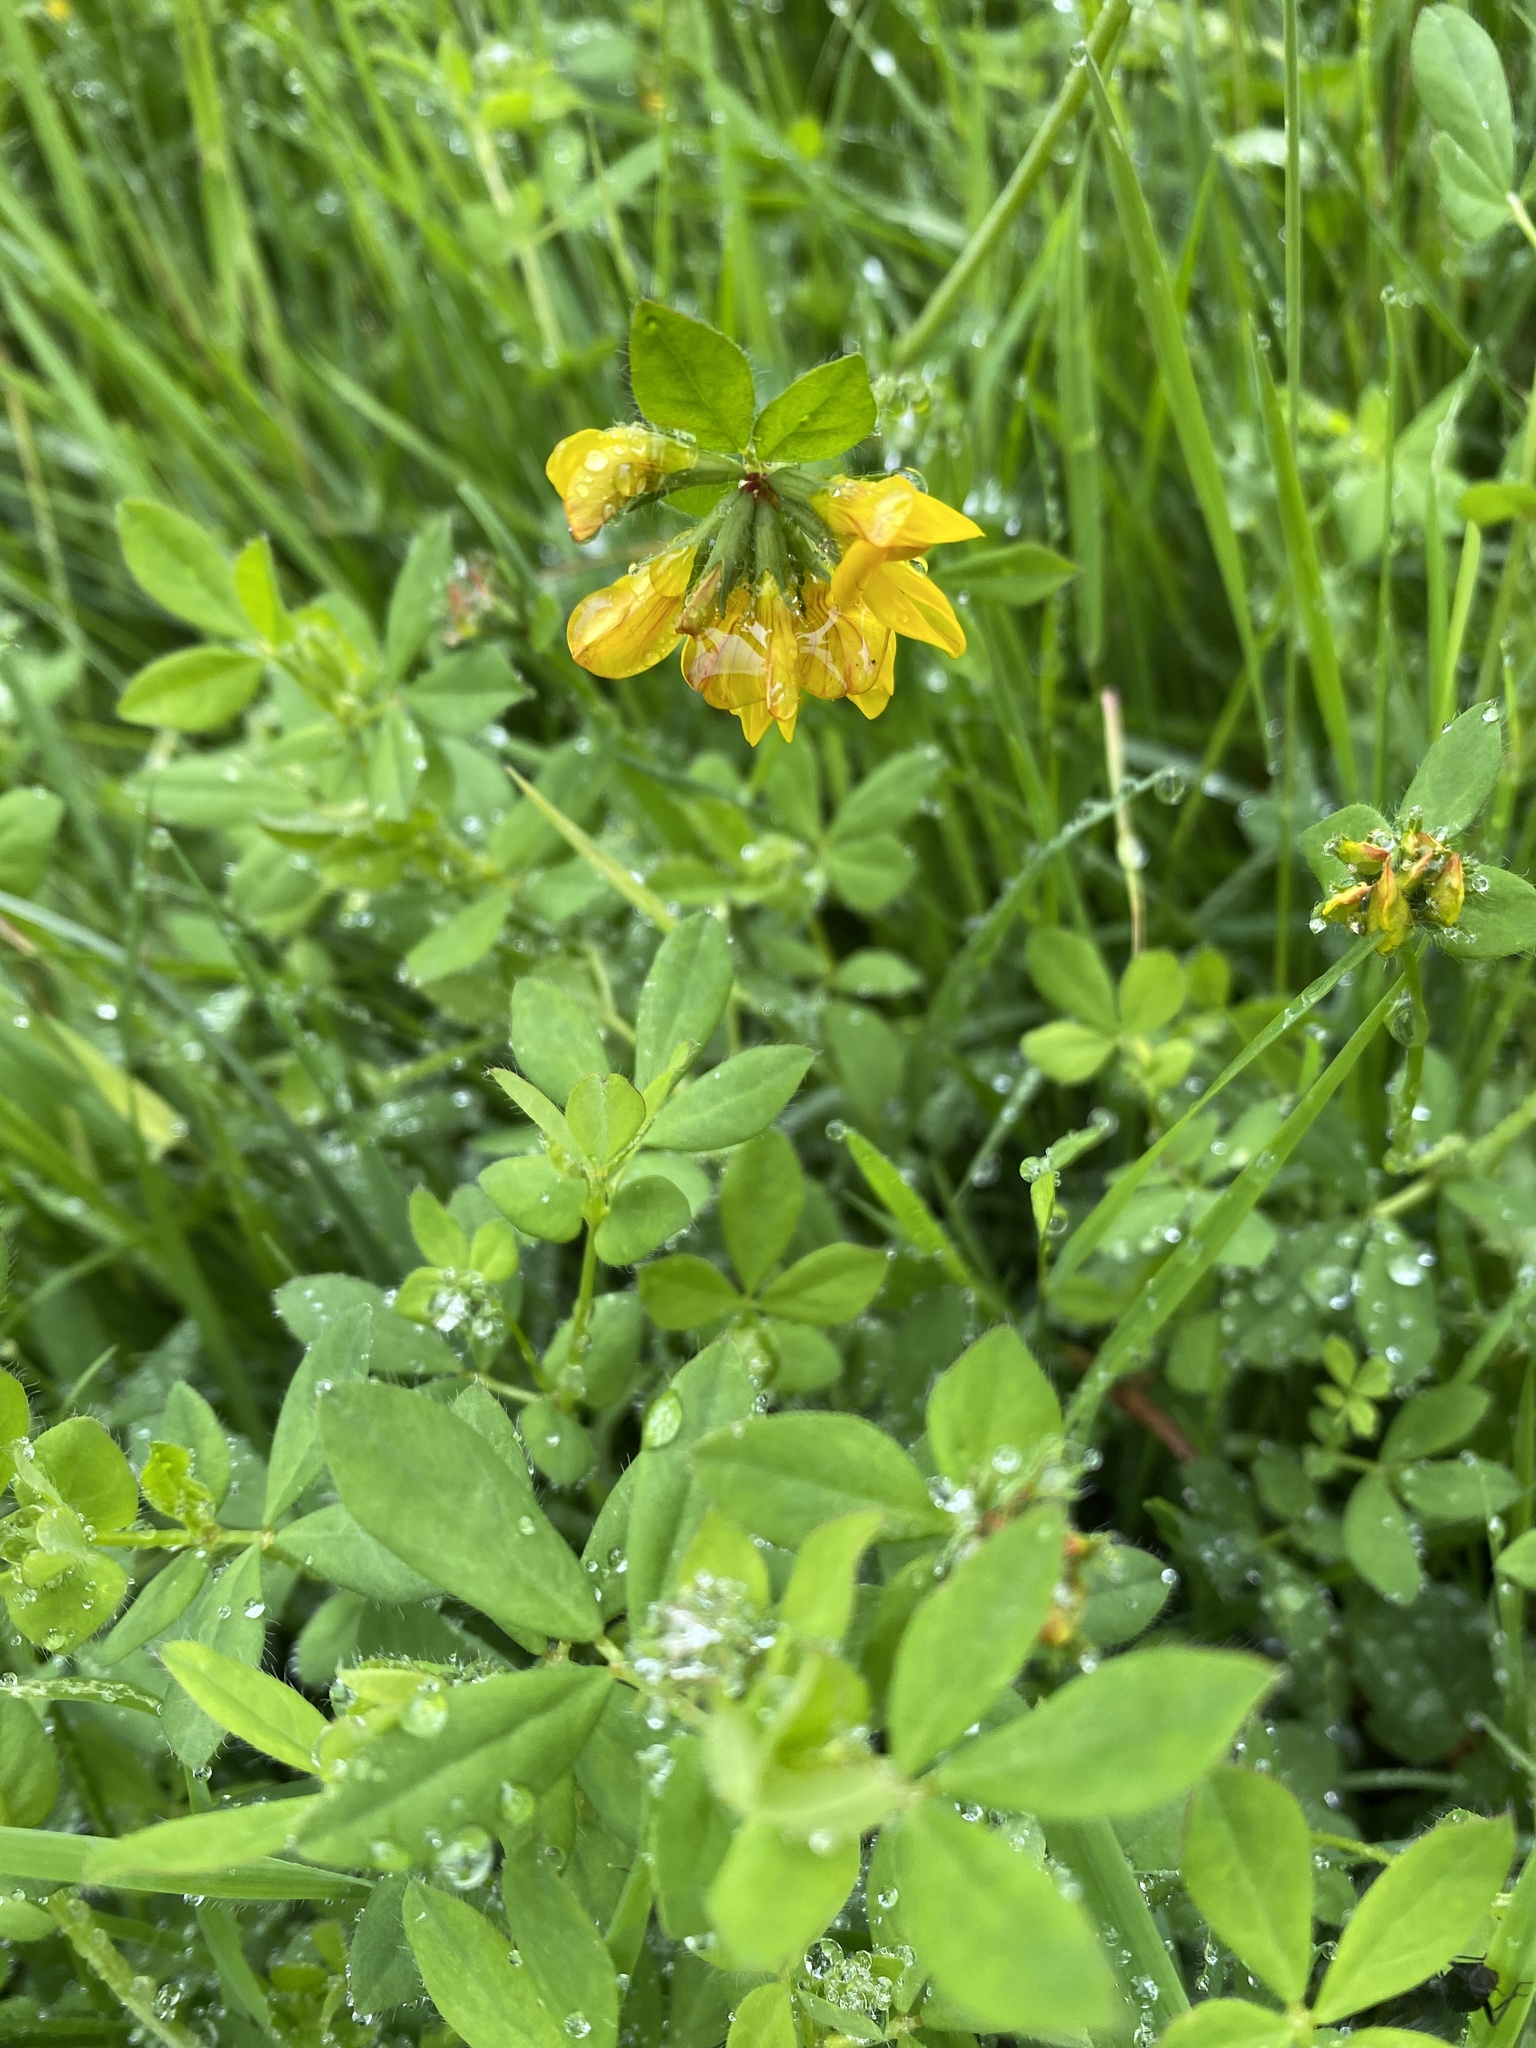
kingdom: Plantae
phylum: Tracheophyta
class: Magnoliopsida
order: Fabales
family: Fabaceae
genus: Lotus
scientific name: Lotus pedunculatus
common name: Greater birdsfoot-trefoil
